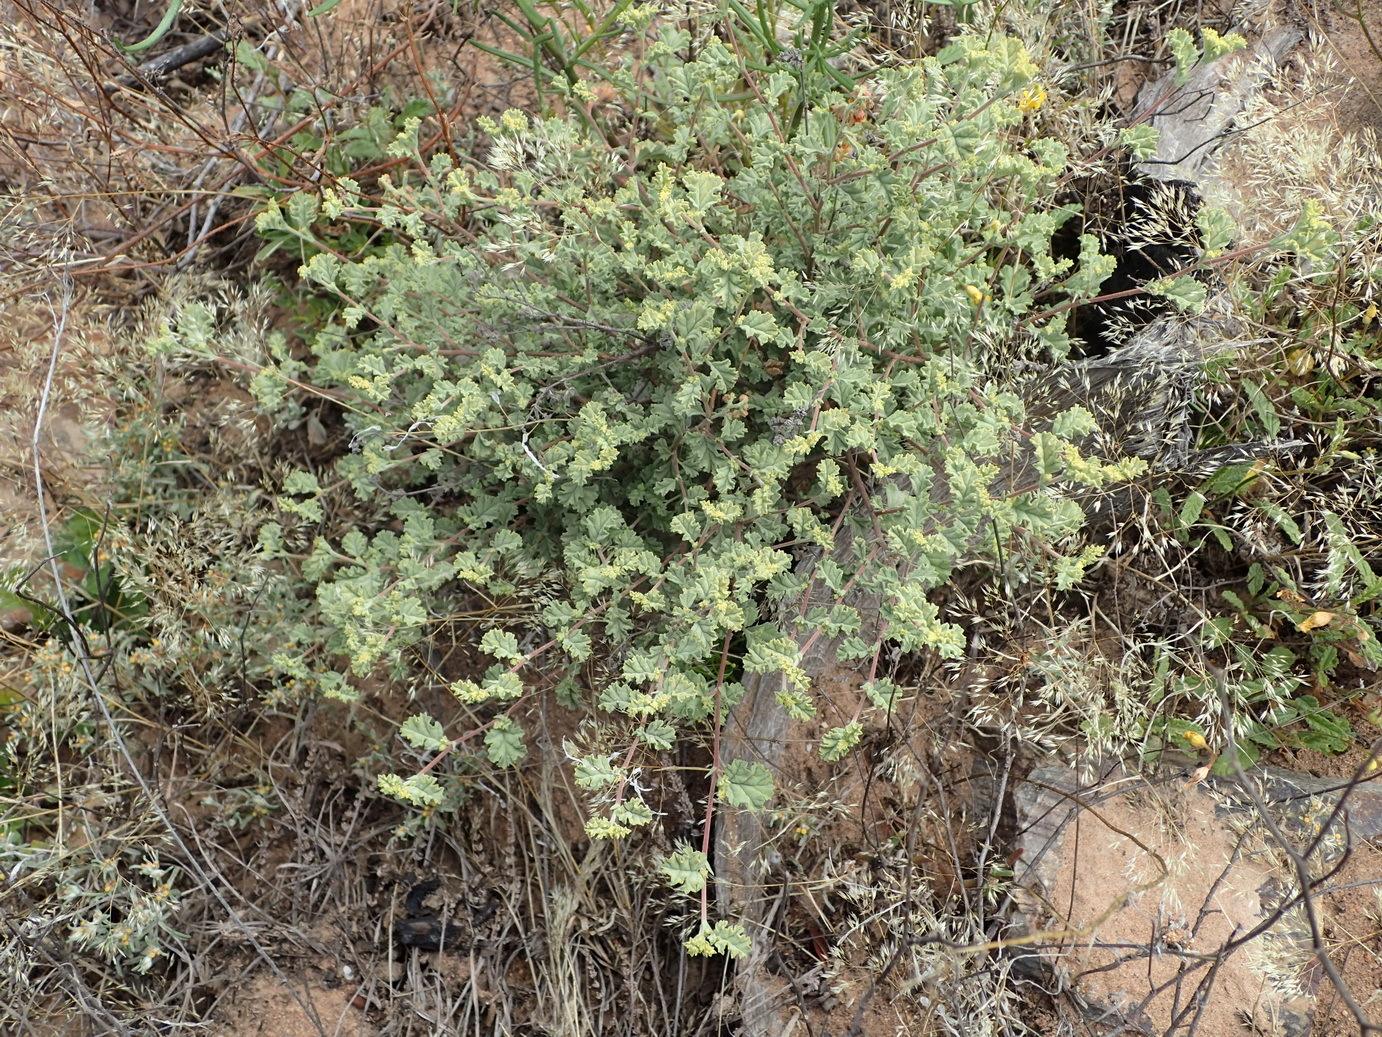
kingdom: Plantae
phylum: Tracheophyta
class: Magnoliopsida
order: Malvales
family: Malvaceae
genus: Hermannia
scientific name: Hermannia holosericea
